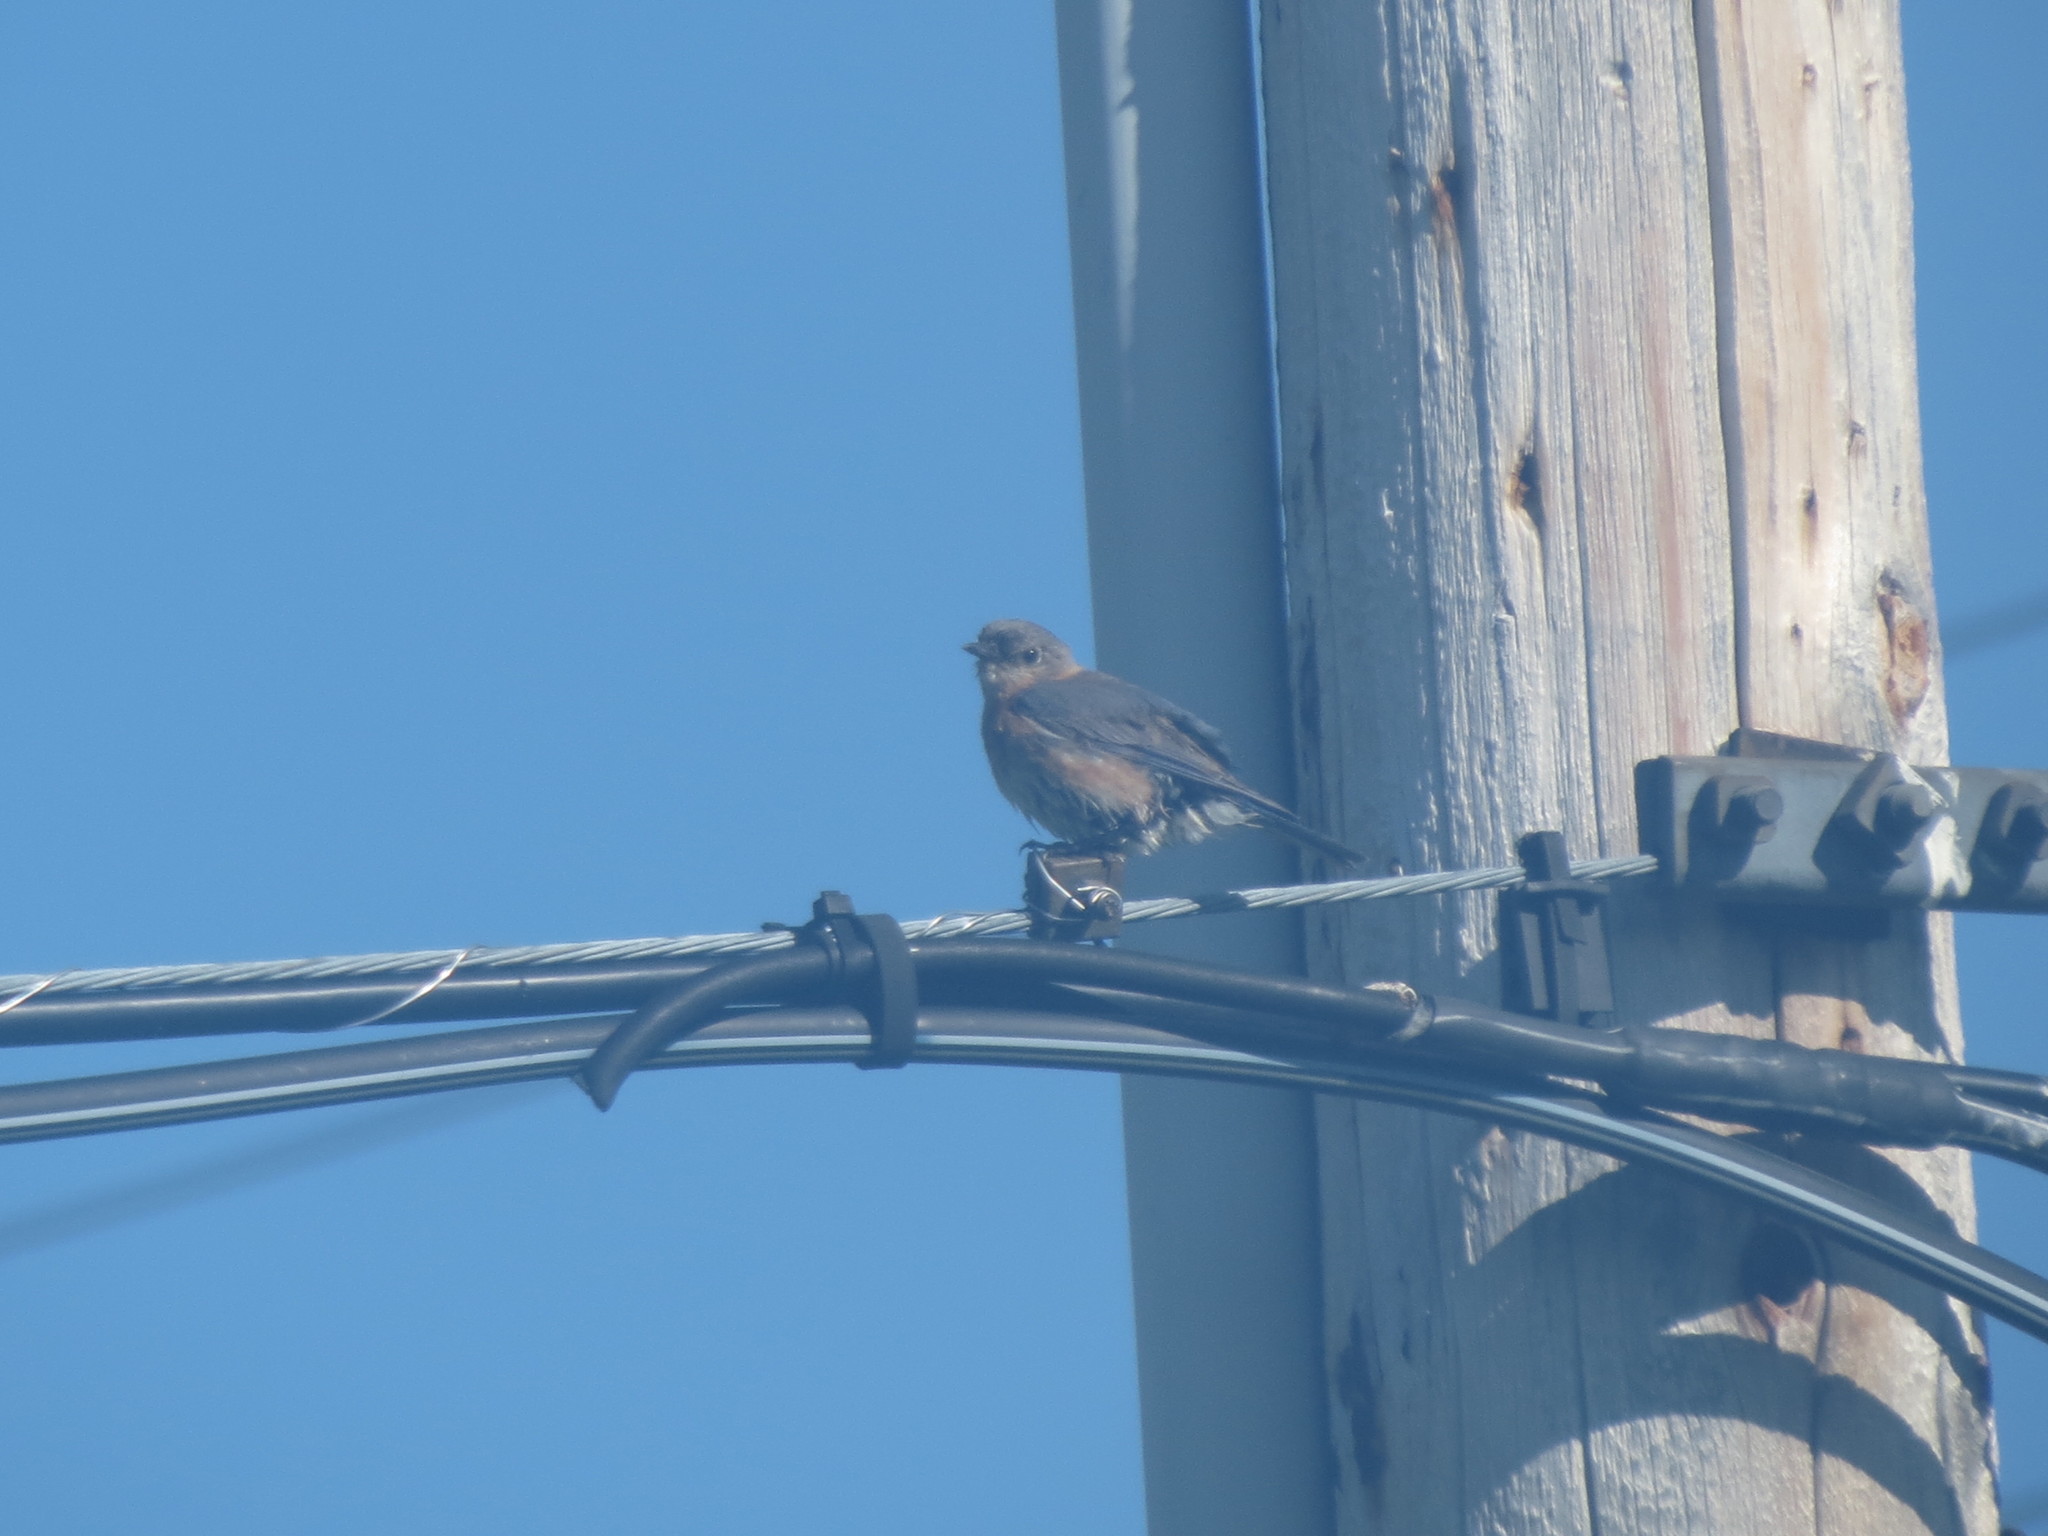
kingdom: Animalia
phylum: Chordata
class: Aves
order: Passeriformes
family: Turdidae
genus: Sialia
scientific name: Sialia sialis
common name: Eastern bluebird
